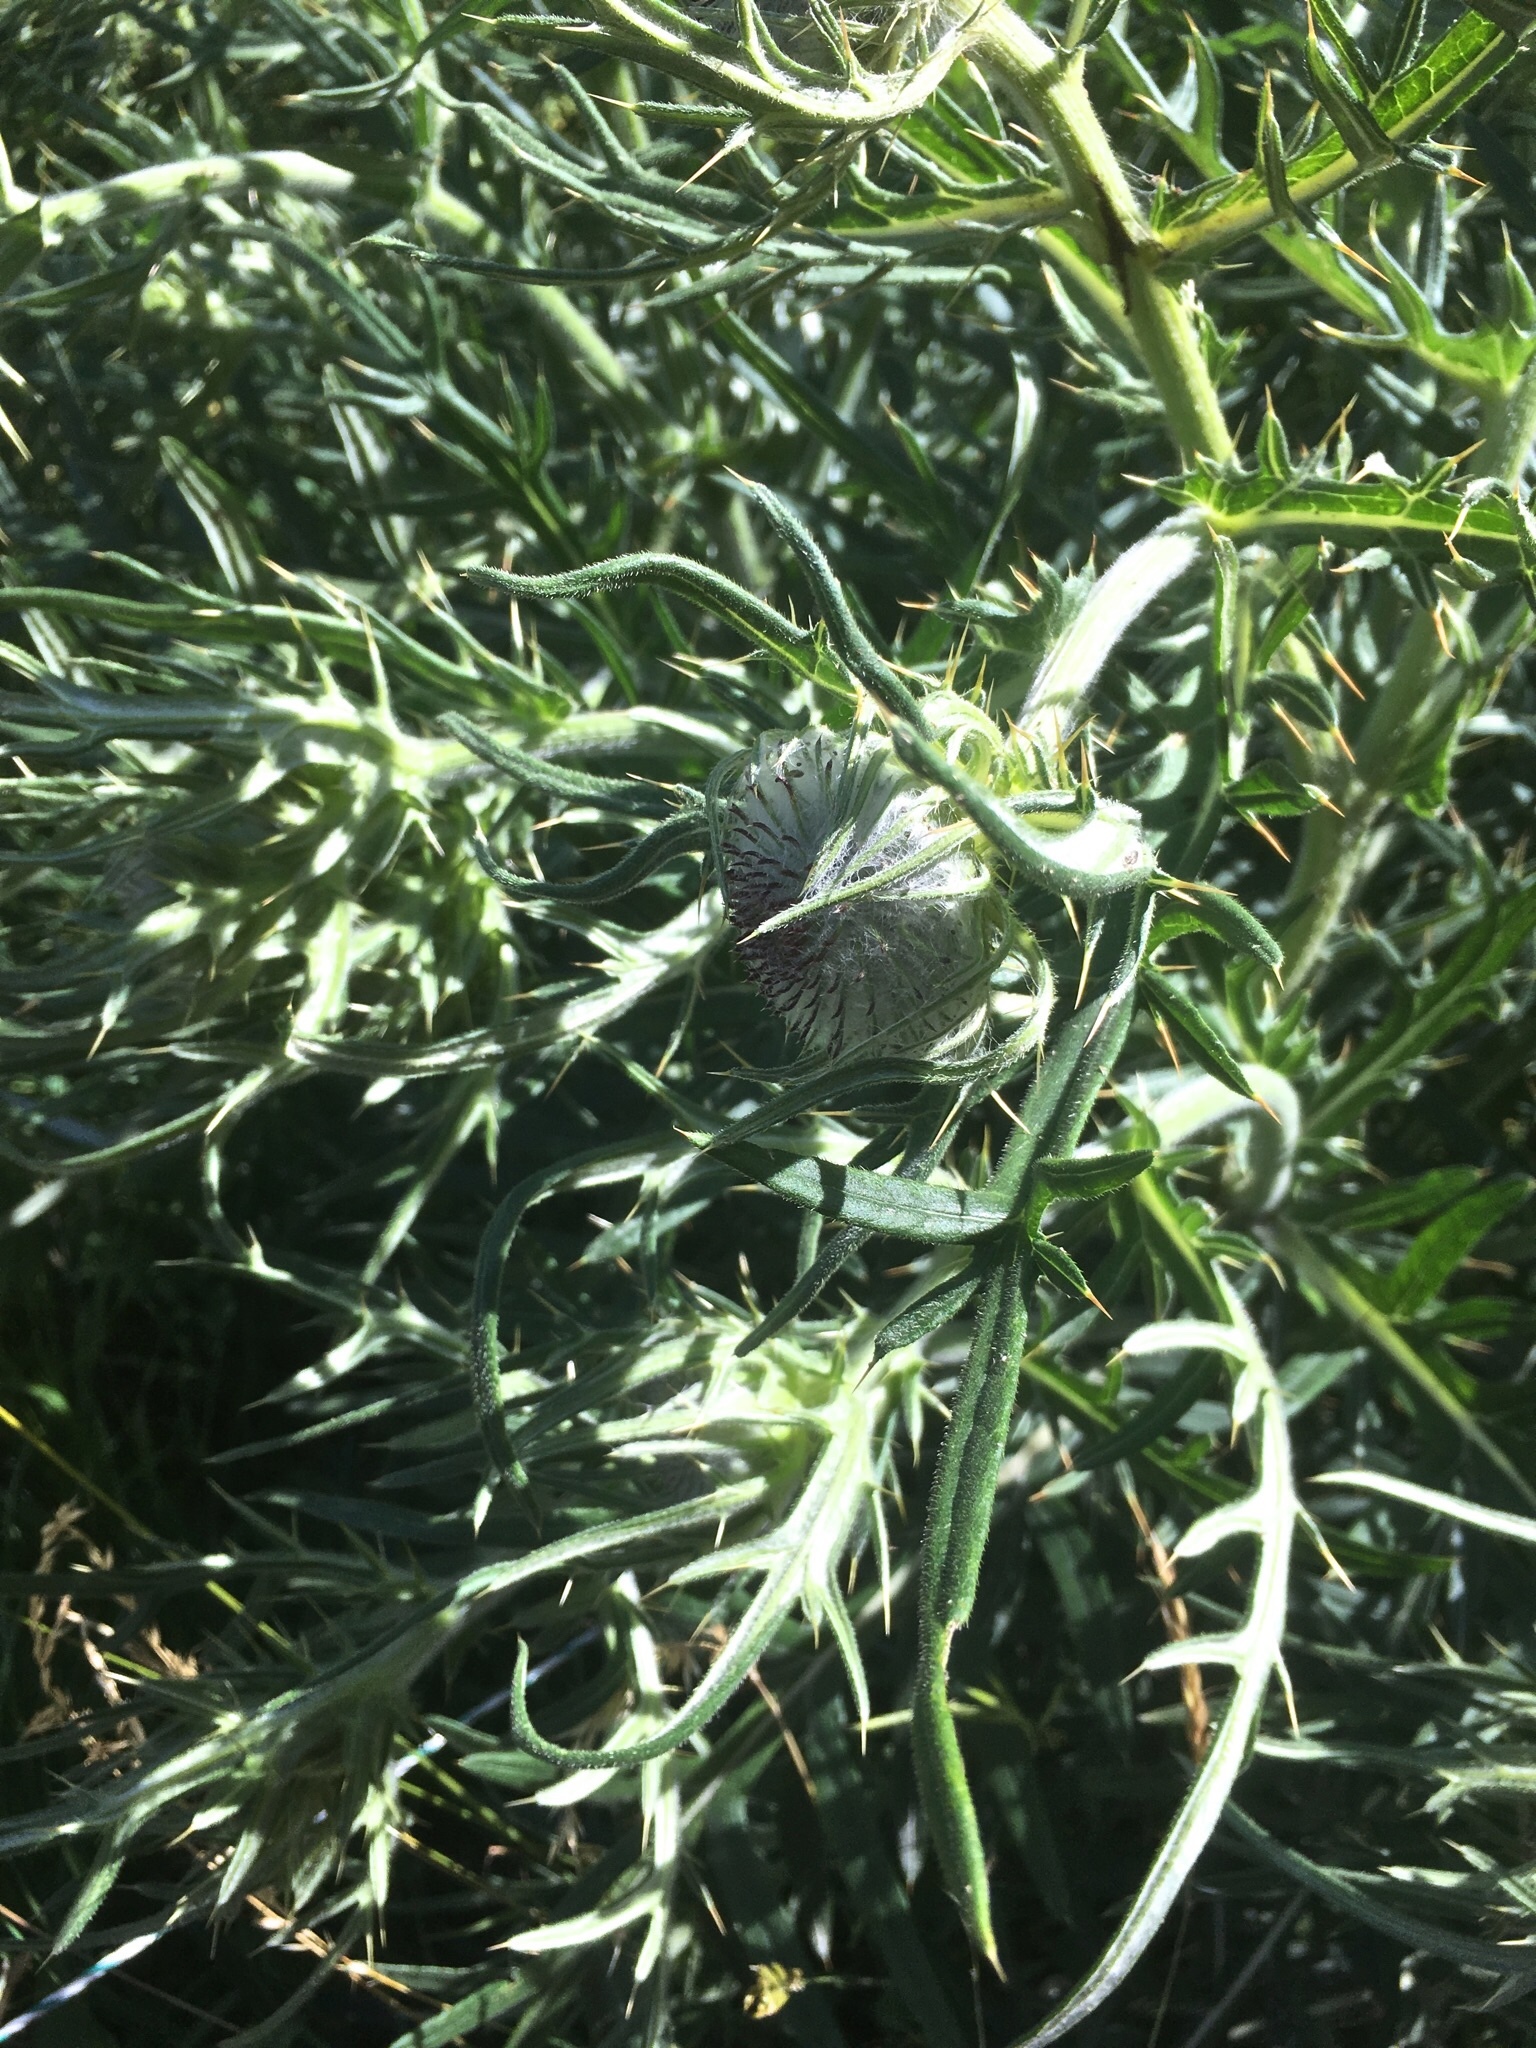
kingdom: Plantae
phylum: Tracheophyta
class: Magnoliopsida
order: Asterales
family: Asteraceae
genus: Onopordum
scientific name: Onopordum acanthium
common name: Scotch thistle
